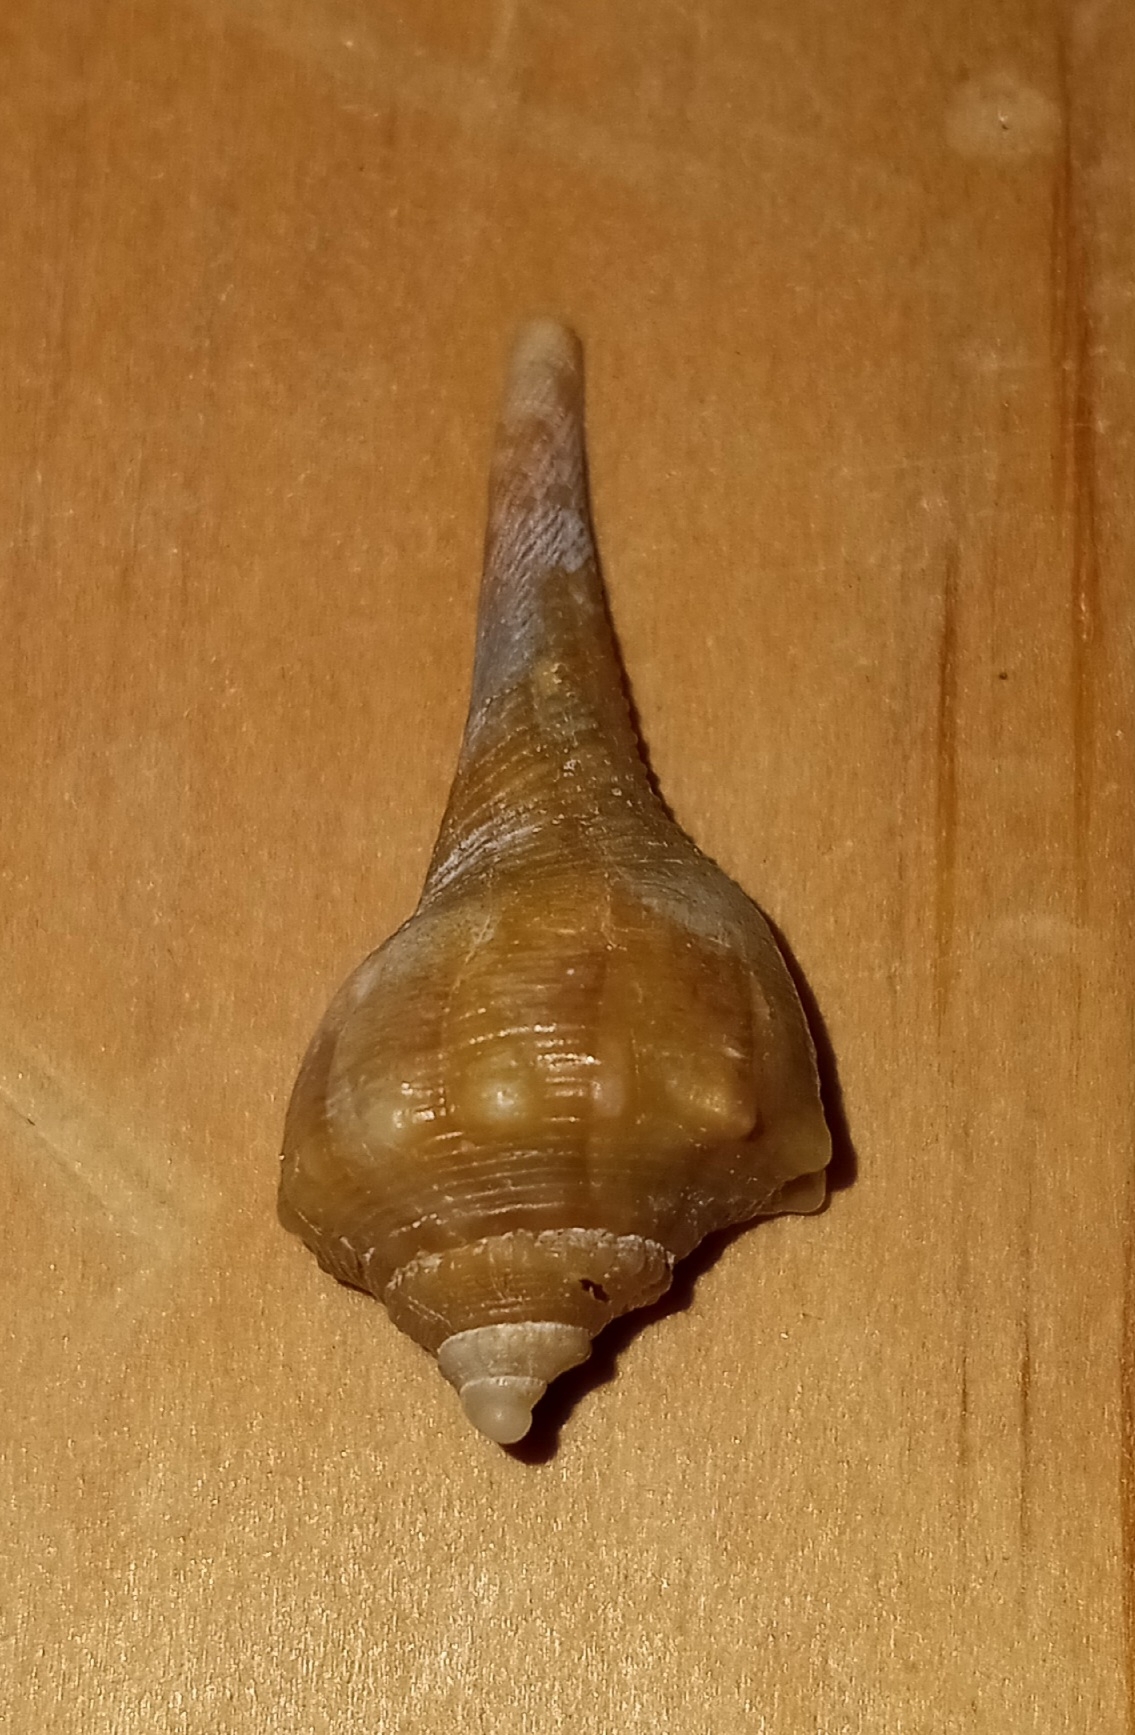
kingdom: Animalia
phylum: Mollusca
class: Gastropoda
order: Neogastropoda
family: Busyconidae
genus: Busycon
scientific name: Busycon carica
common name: Knobbed whelk
